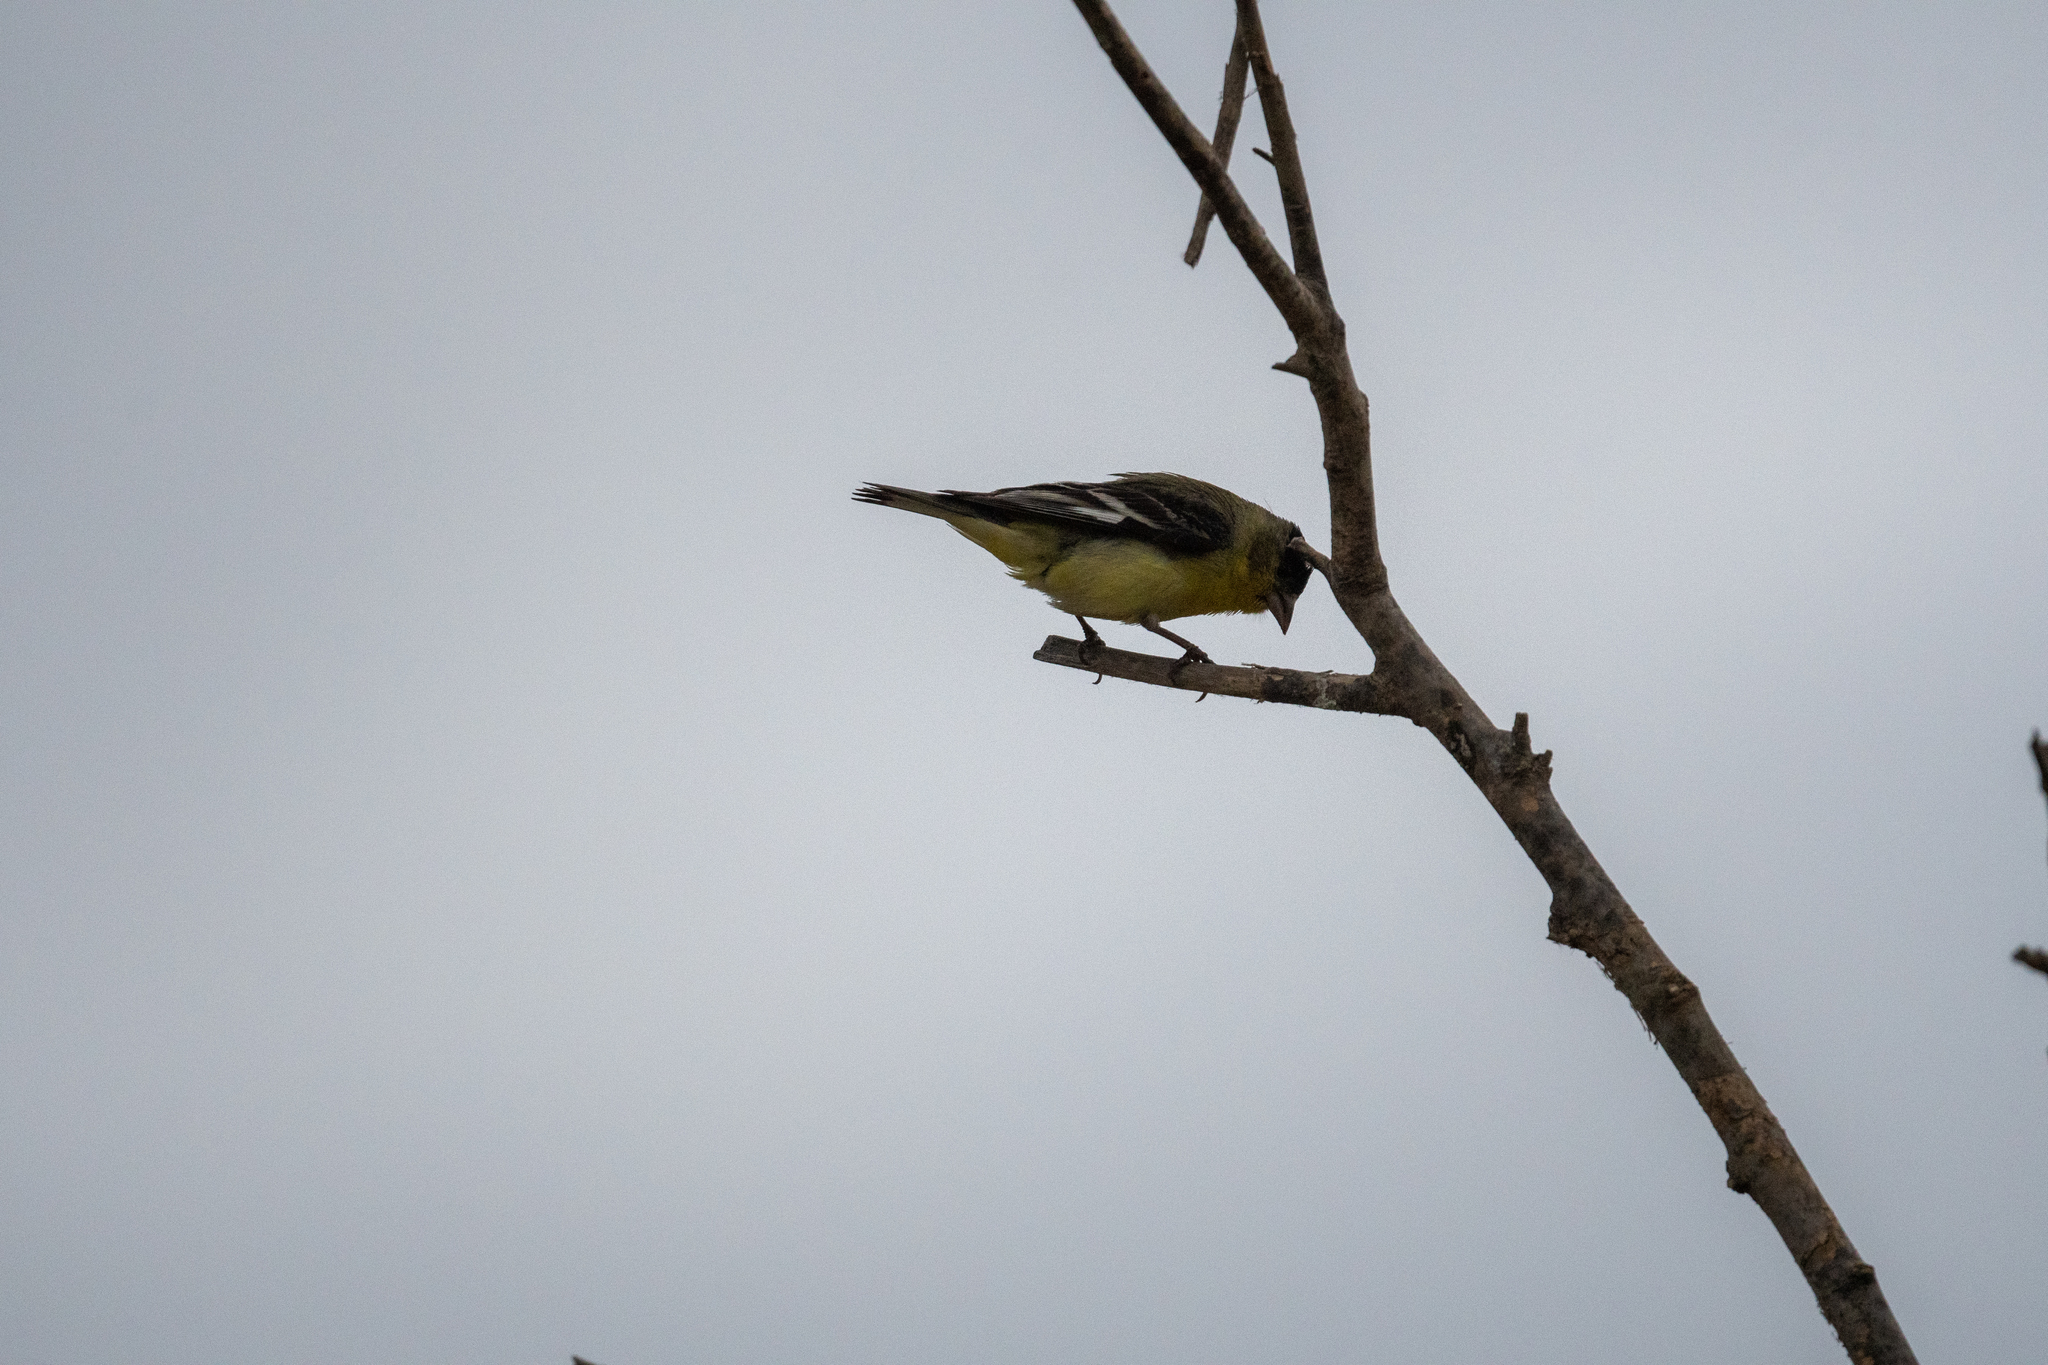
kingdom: Animalia
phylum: Chordata
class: Aves
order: Passeriformes
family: Fringillidae
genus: Spinus
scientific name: Spinus psaltria
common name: Lesser goldfinch
